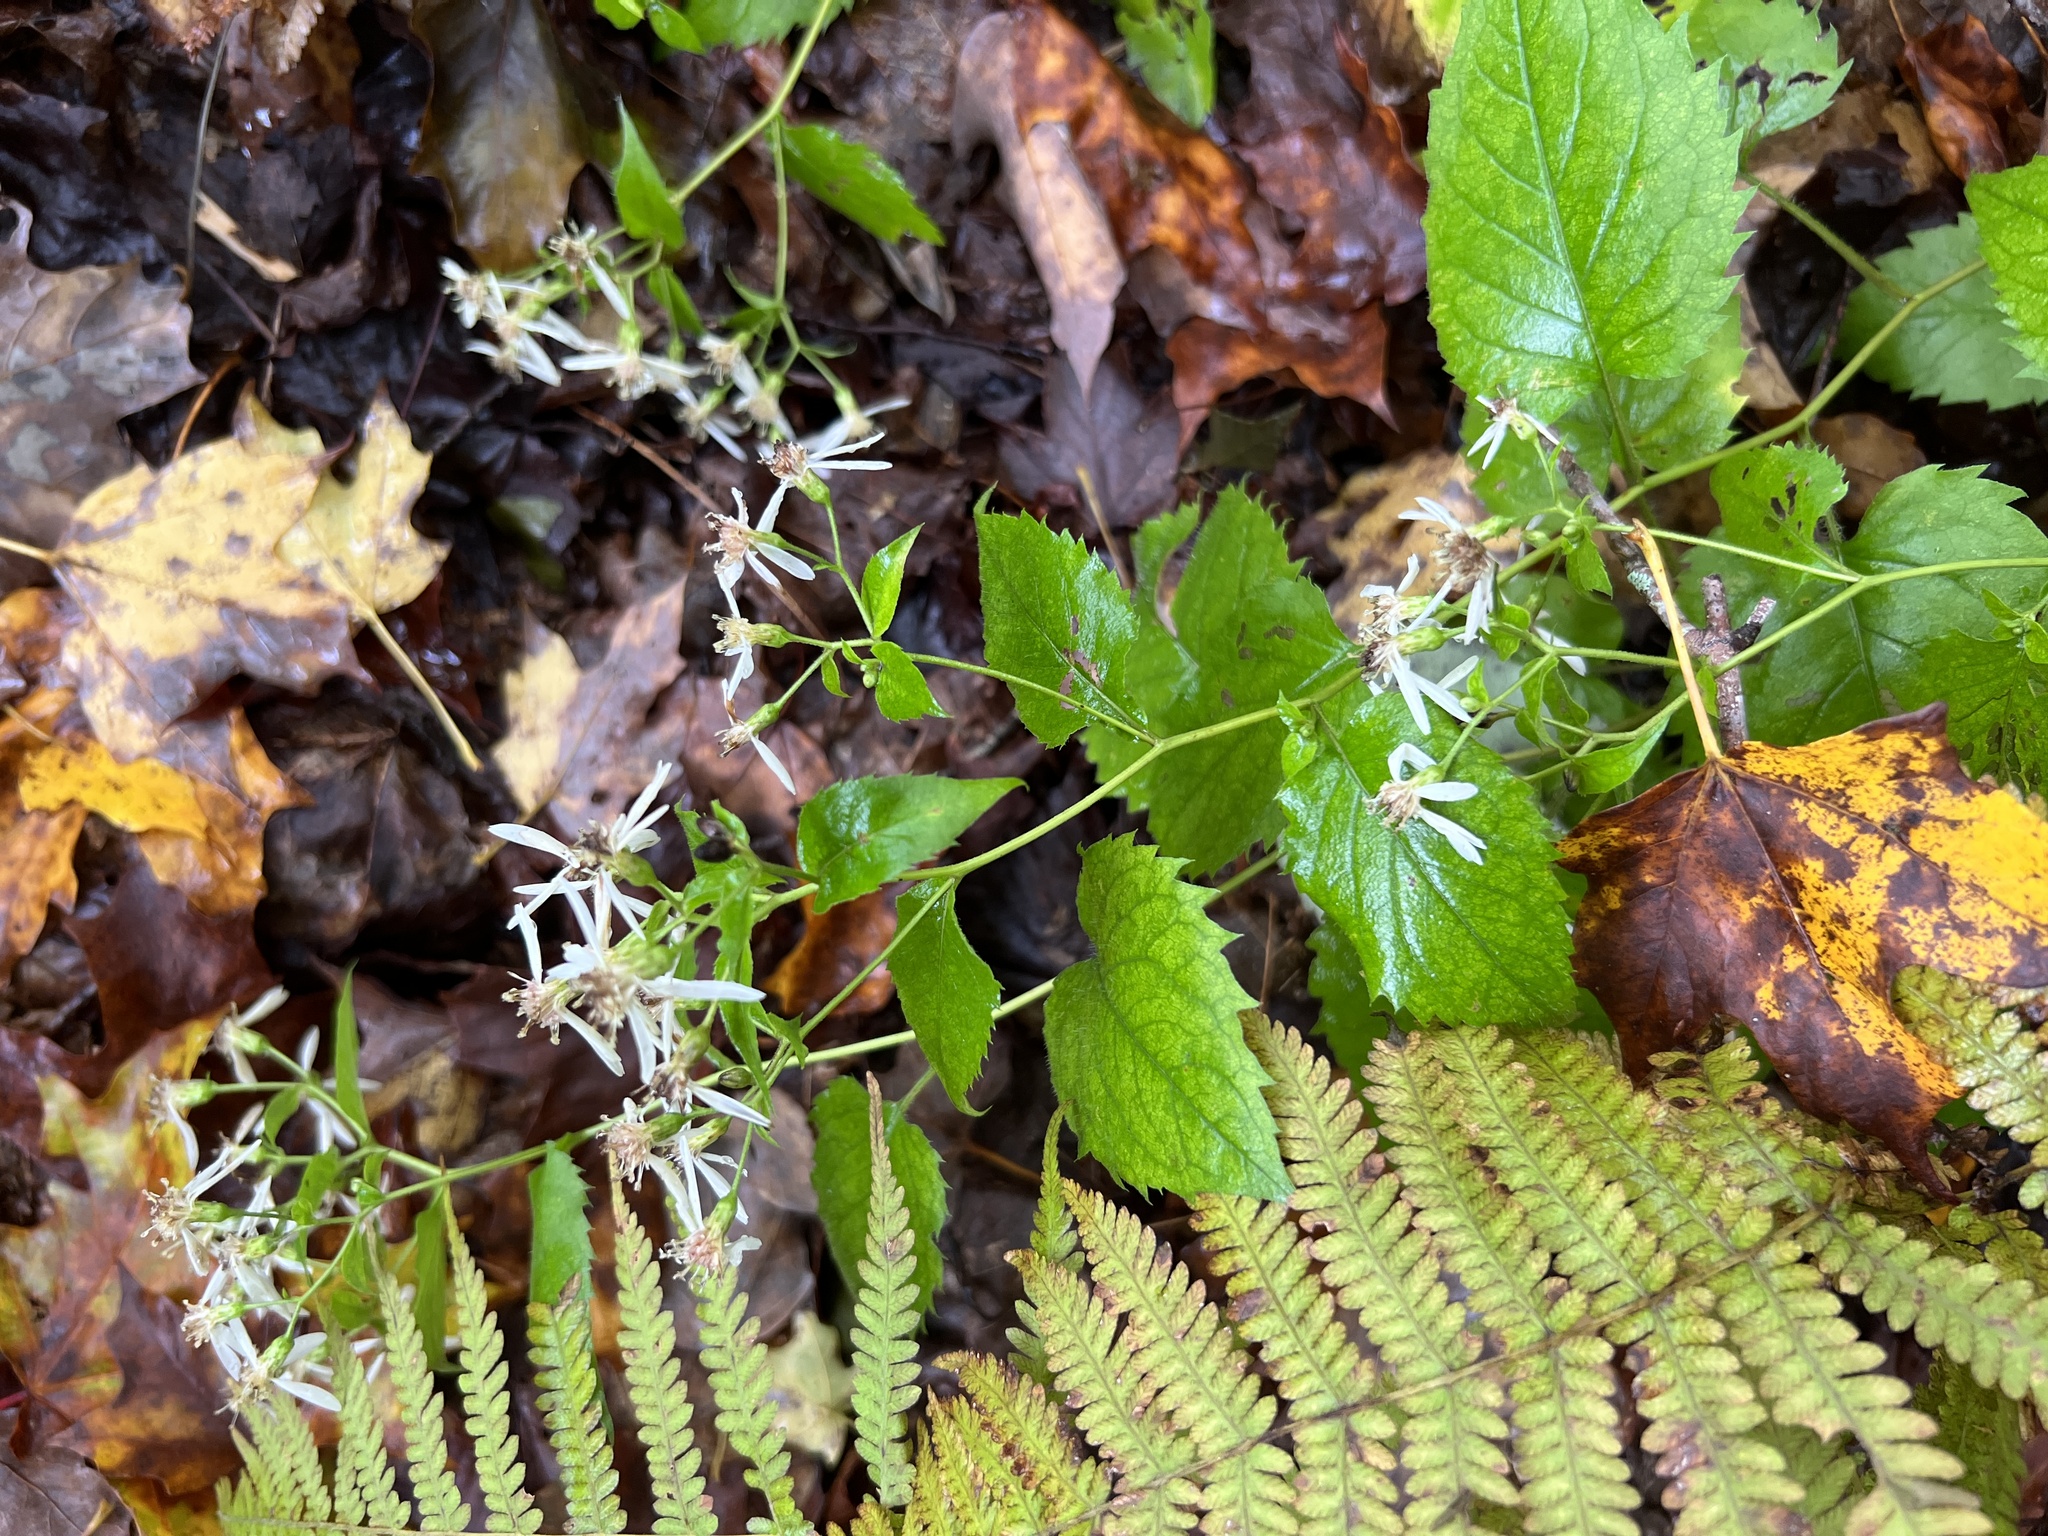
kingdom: Plantae
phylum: Tracheophyta
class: Magnoliopsida
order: Asterales
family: Asteraceae
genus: Eurybia
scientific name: Eurybia divaricata
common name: White wood aster
